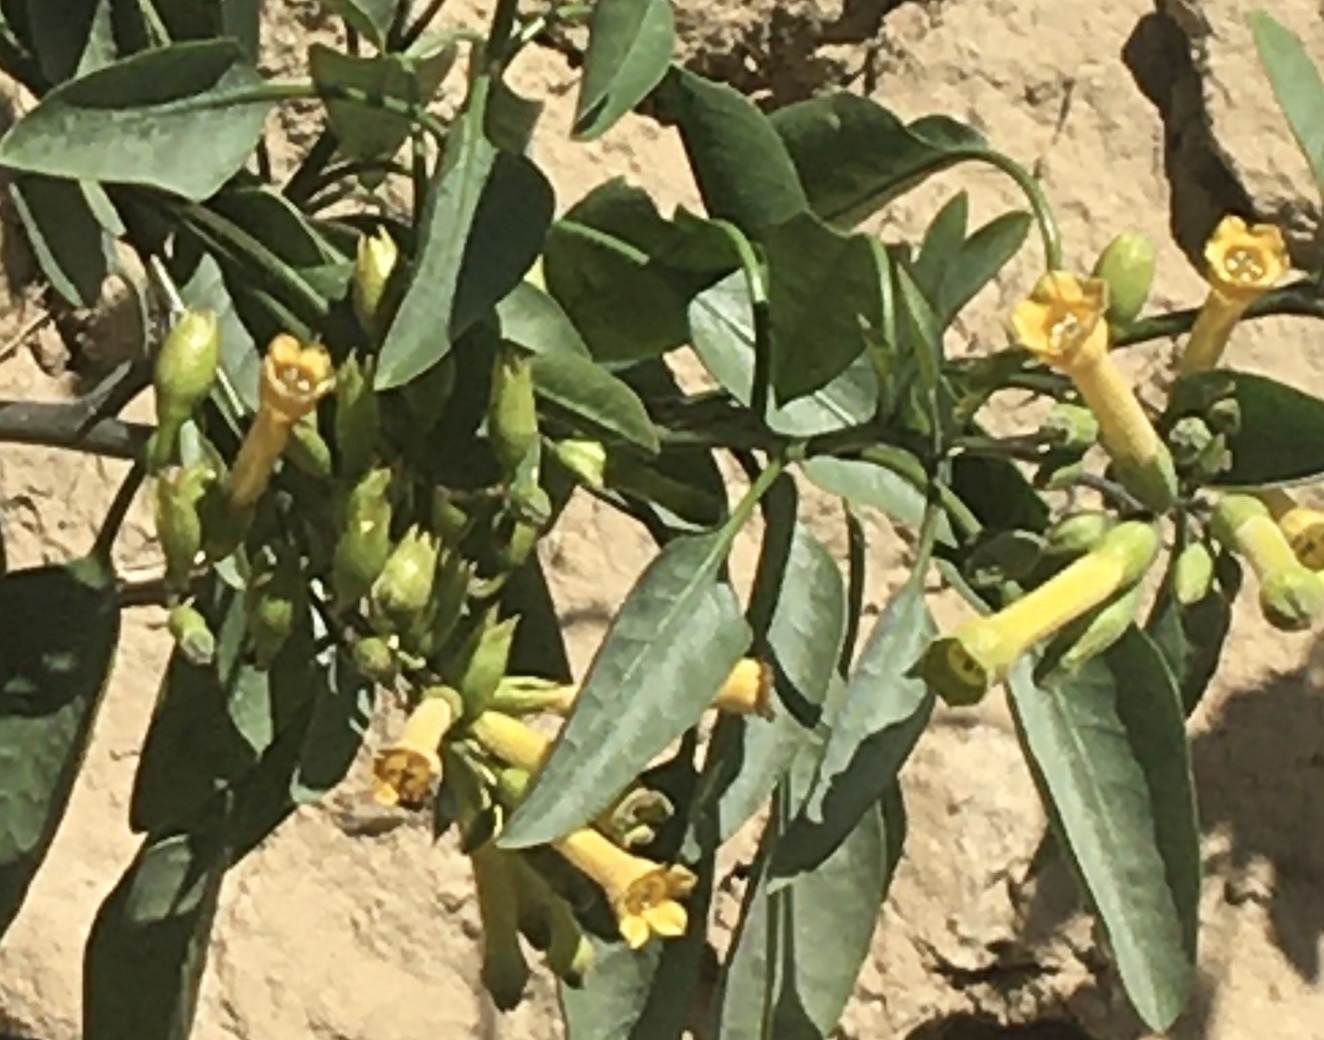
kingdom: Plantae
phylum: Tracheophyta
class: Magnoliopsida
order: Solanales
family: Solanaceae
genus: Nicotiana
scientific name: Nicotiana glauca
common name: Tree tobacco
